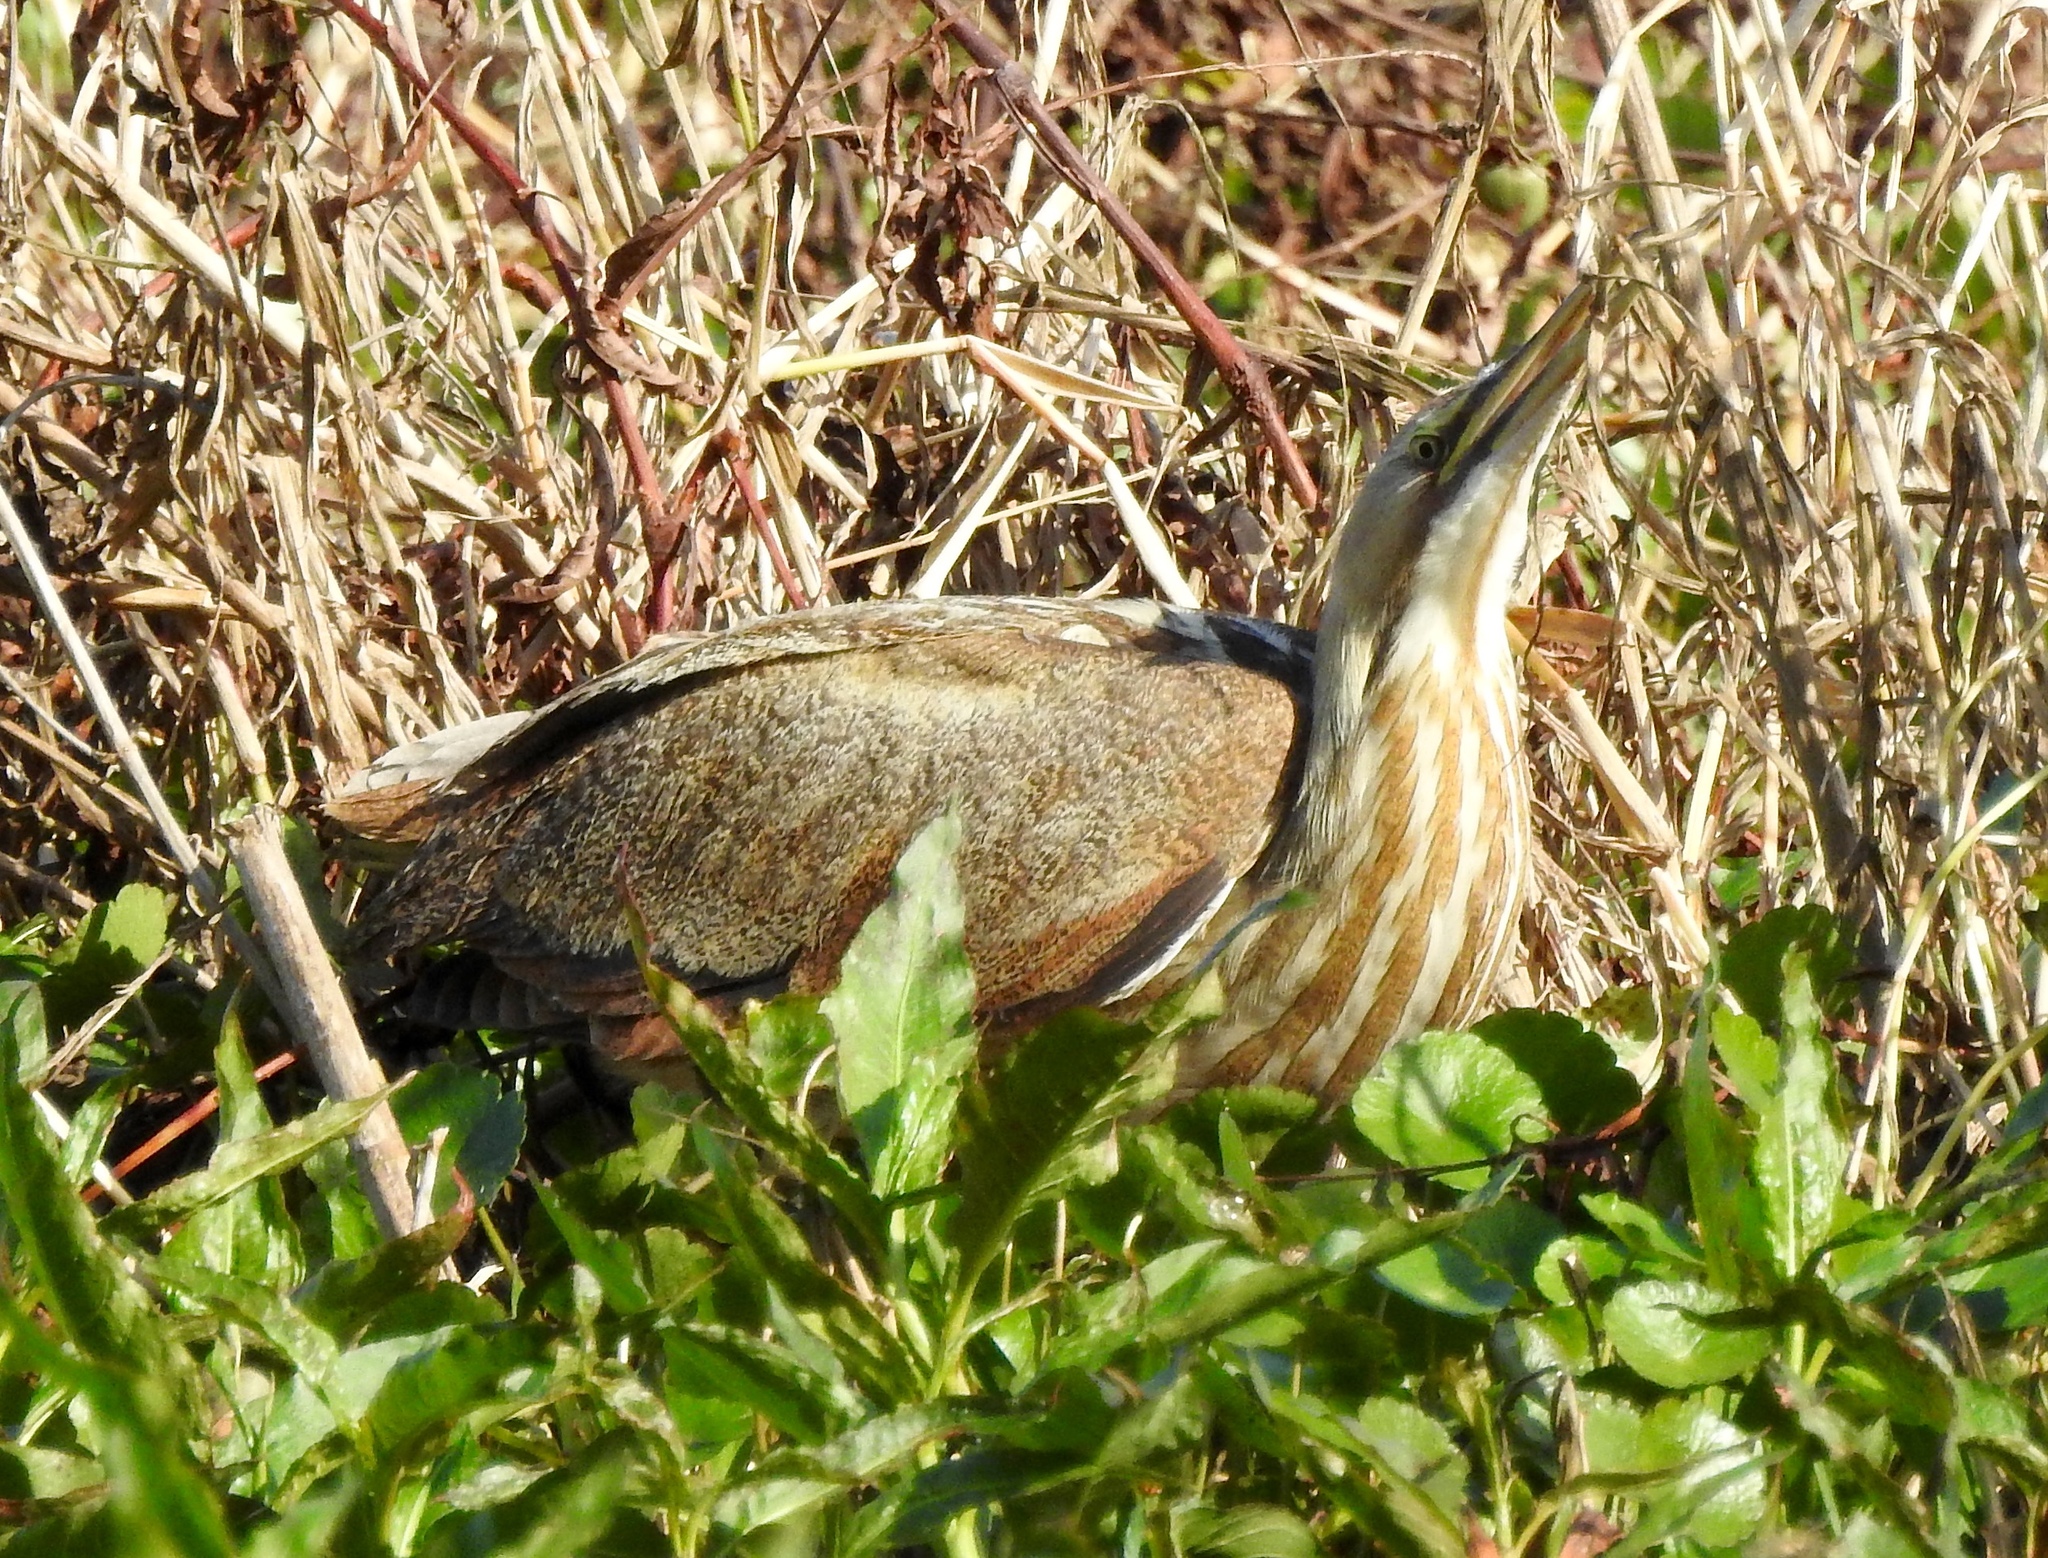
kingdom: Animalia
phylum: Chordata
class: Aves
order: Pelecaniformes
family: Ardeidae
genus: Botaurus
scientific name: Botaurus lentiginosus
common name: American bittern
